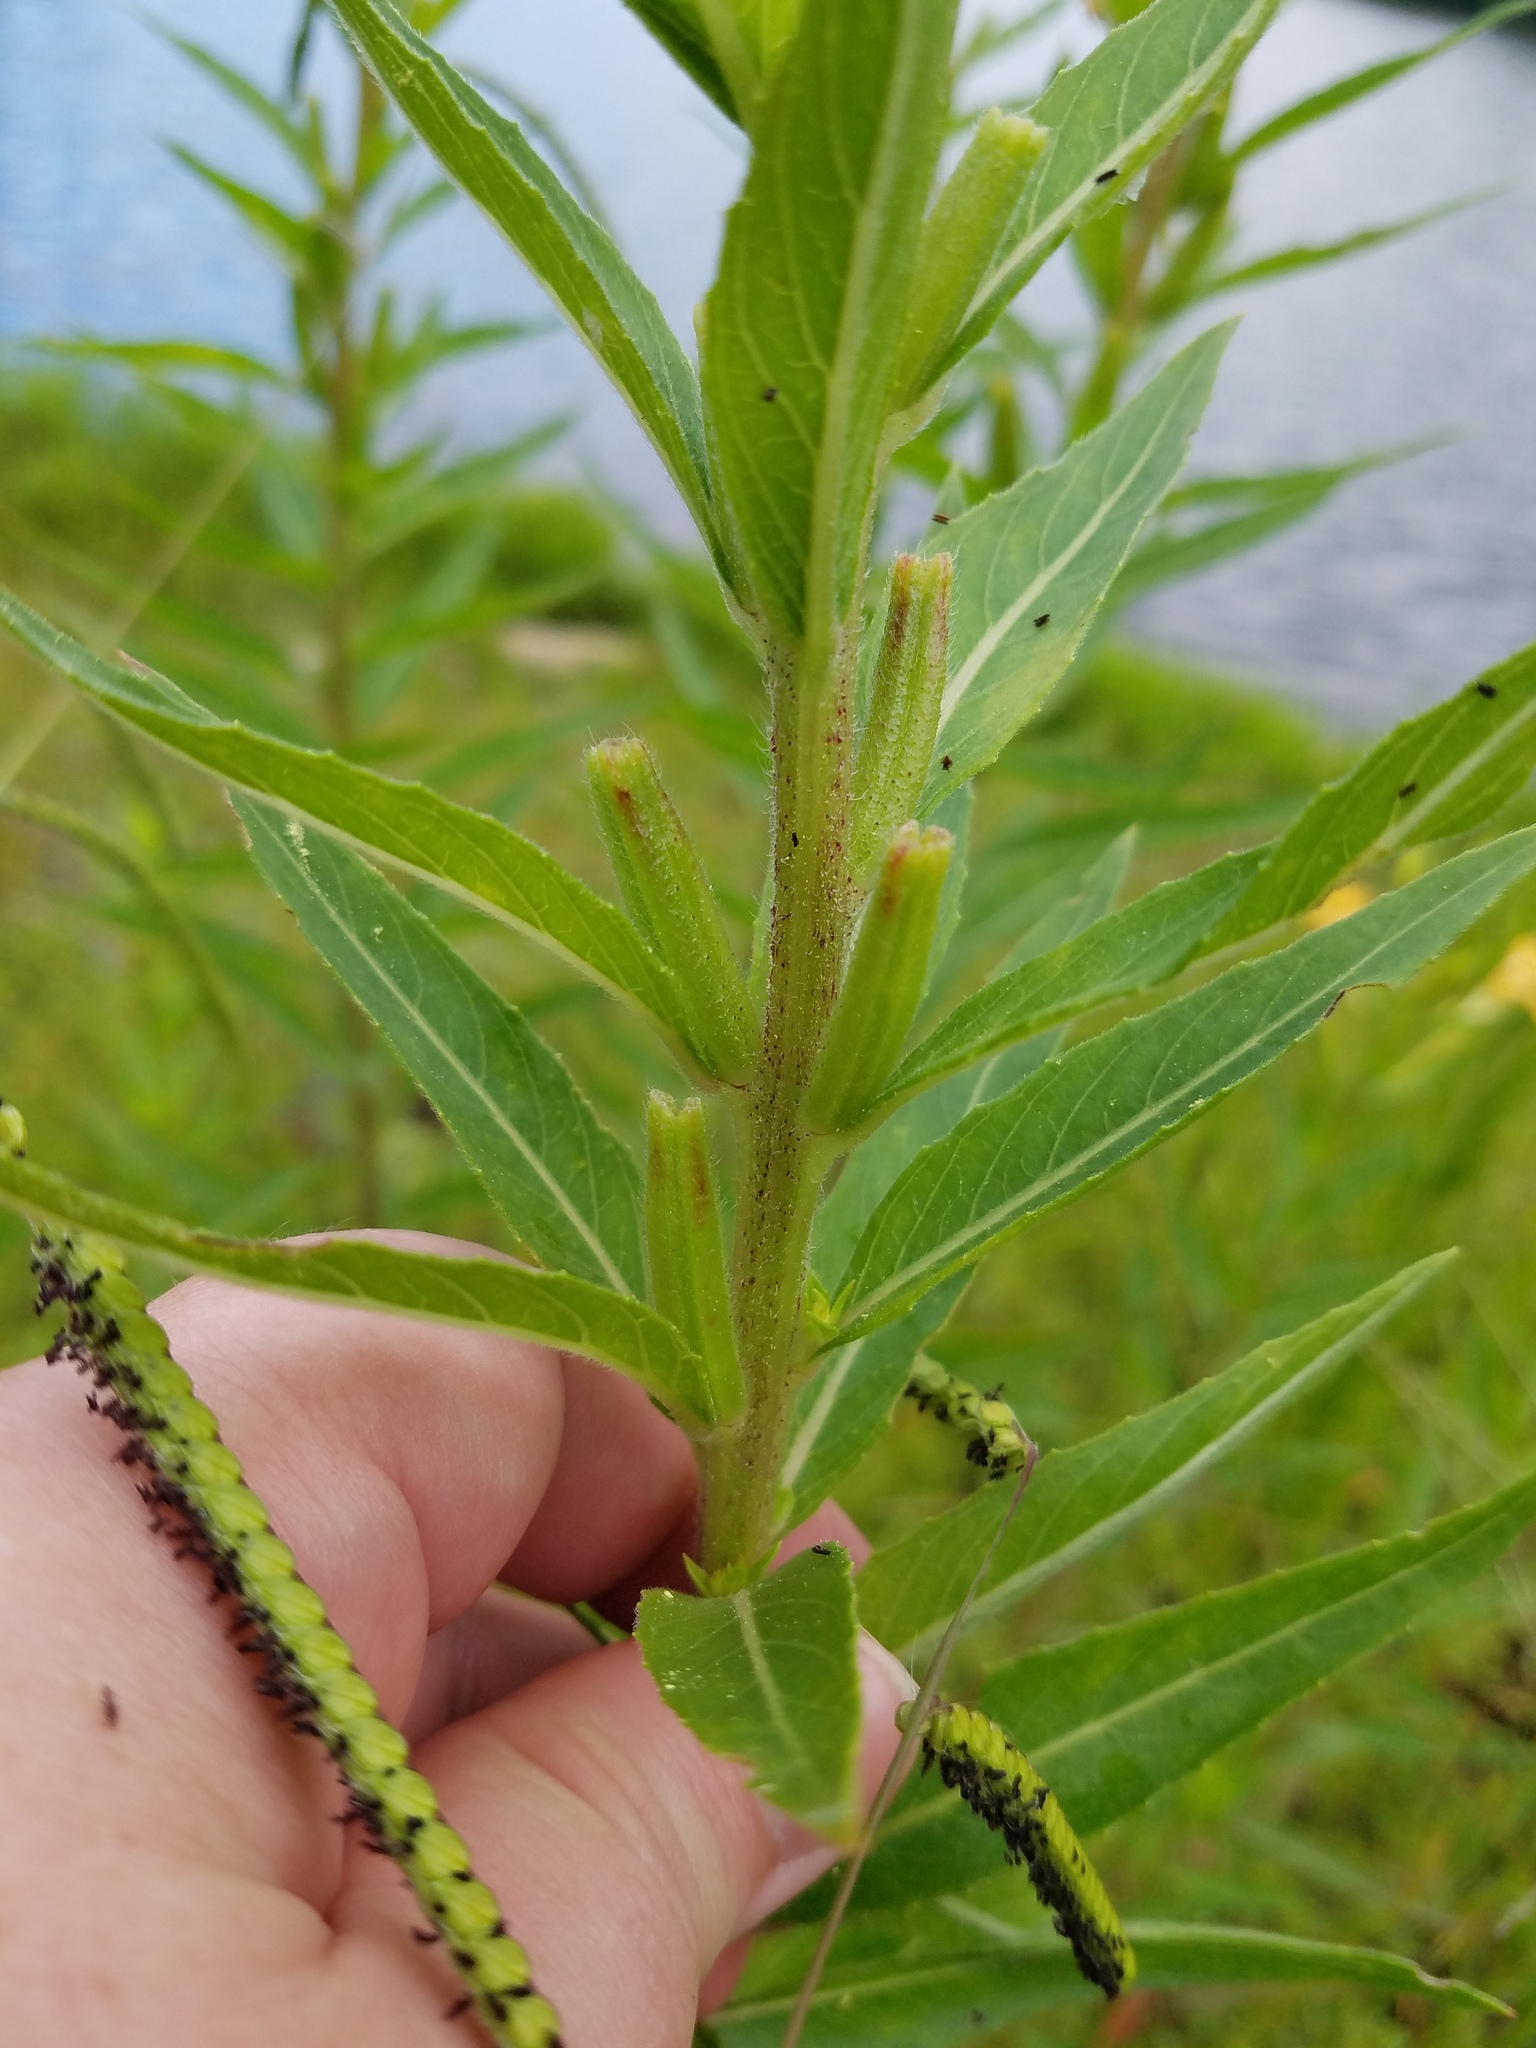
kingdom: Plantae
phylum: Tracheophyta
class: Magnoliopsida
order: Myrtales
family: Onagraceae
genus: Oenothera
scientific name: Oenothera biennis
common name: Common evening-primrose
